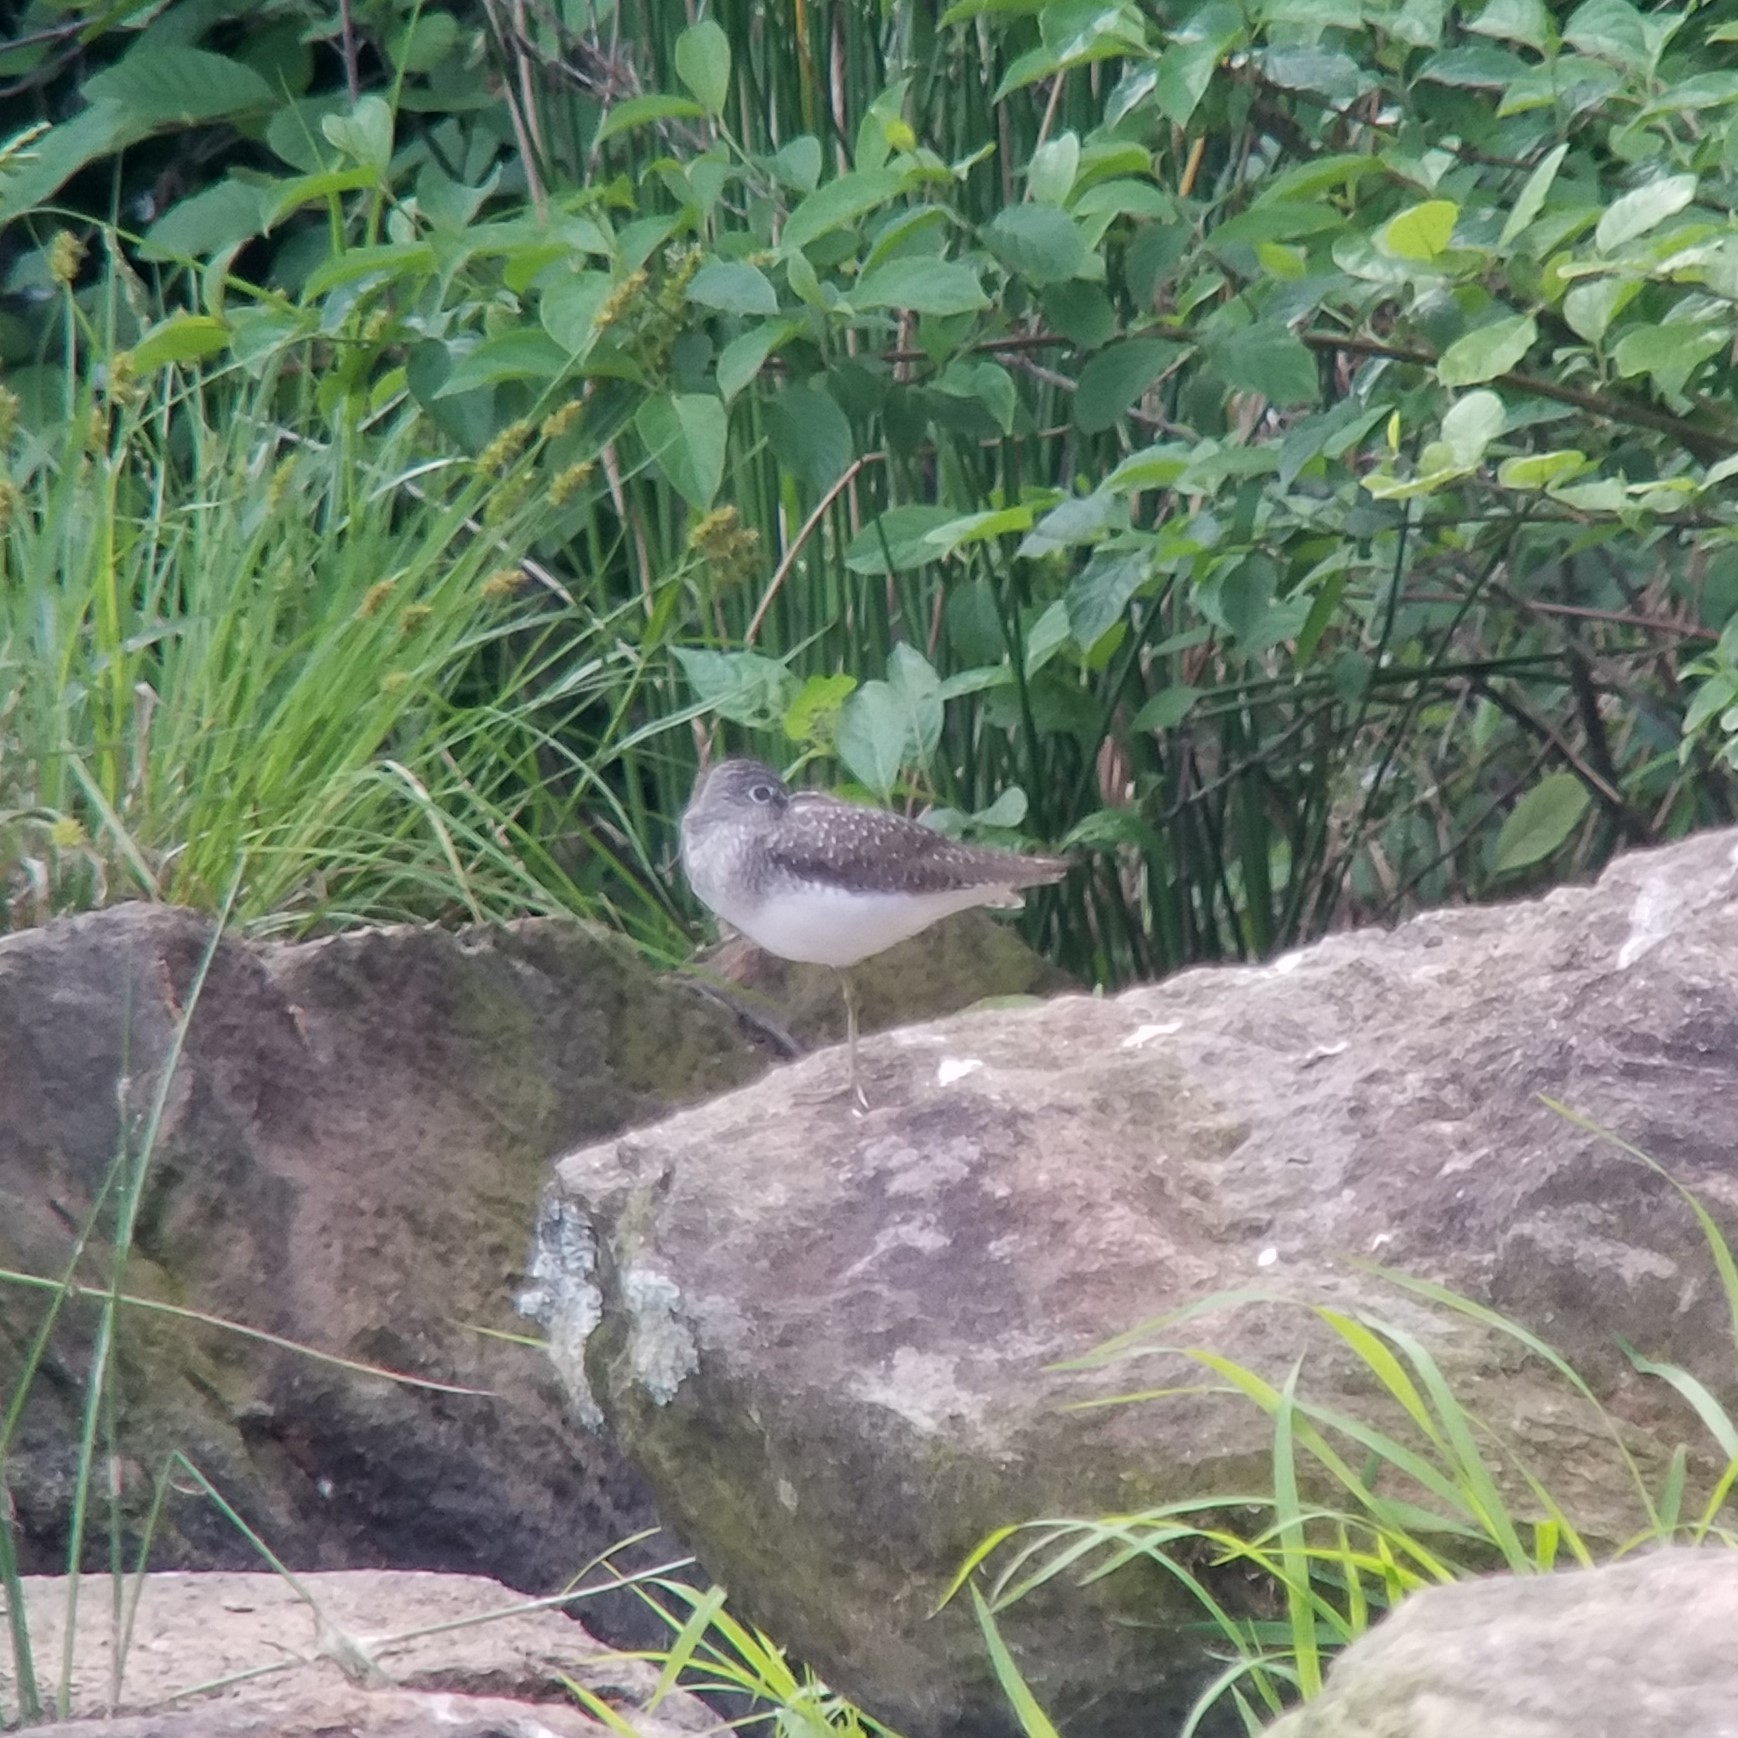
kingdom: Animalia
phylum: Chordata
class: Aves
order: Charadriiformes
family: Scolopacidae
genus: Tringa
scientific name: Tringa solitaria
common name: Solitary sandpiper
